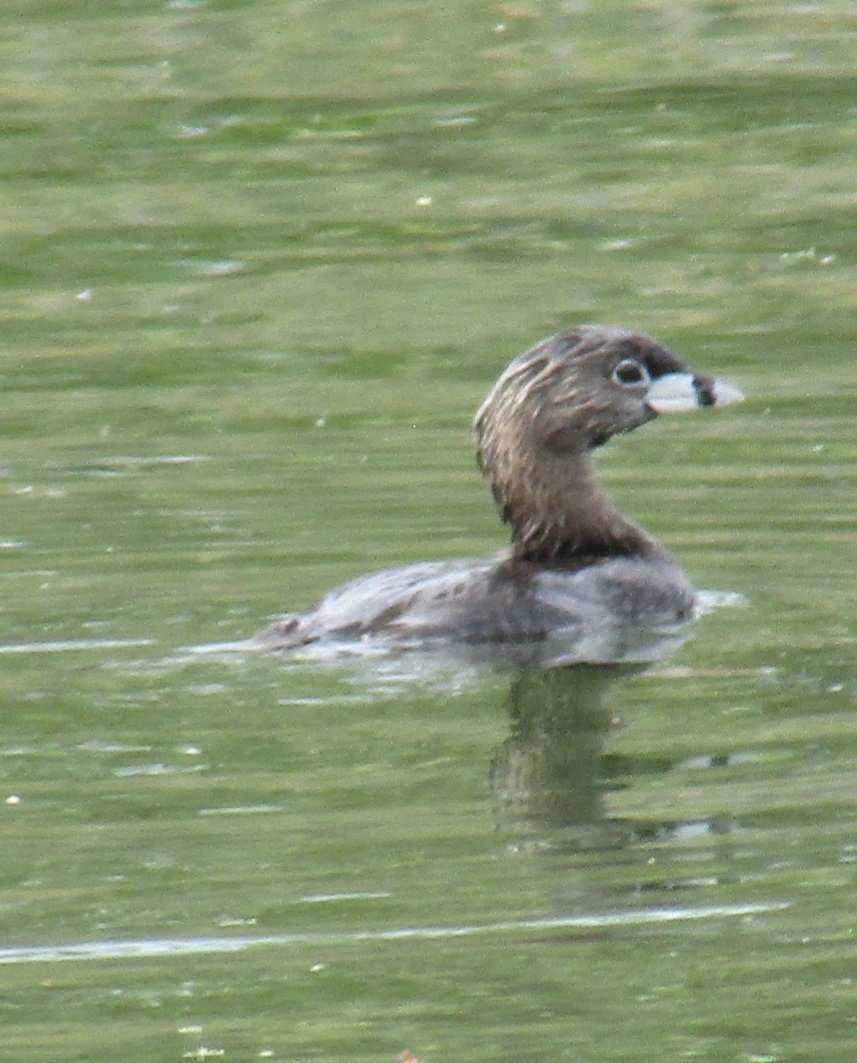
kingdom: Animalia
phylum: Chordata
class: Aves
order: Podicipediformes
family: Podicipedidae
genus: Podilymbus
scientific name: Podilymbus podiceps
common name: Pied-billed grebe
